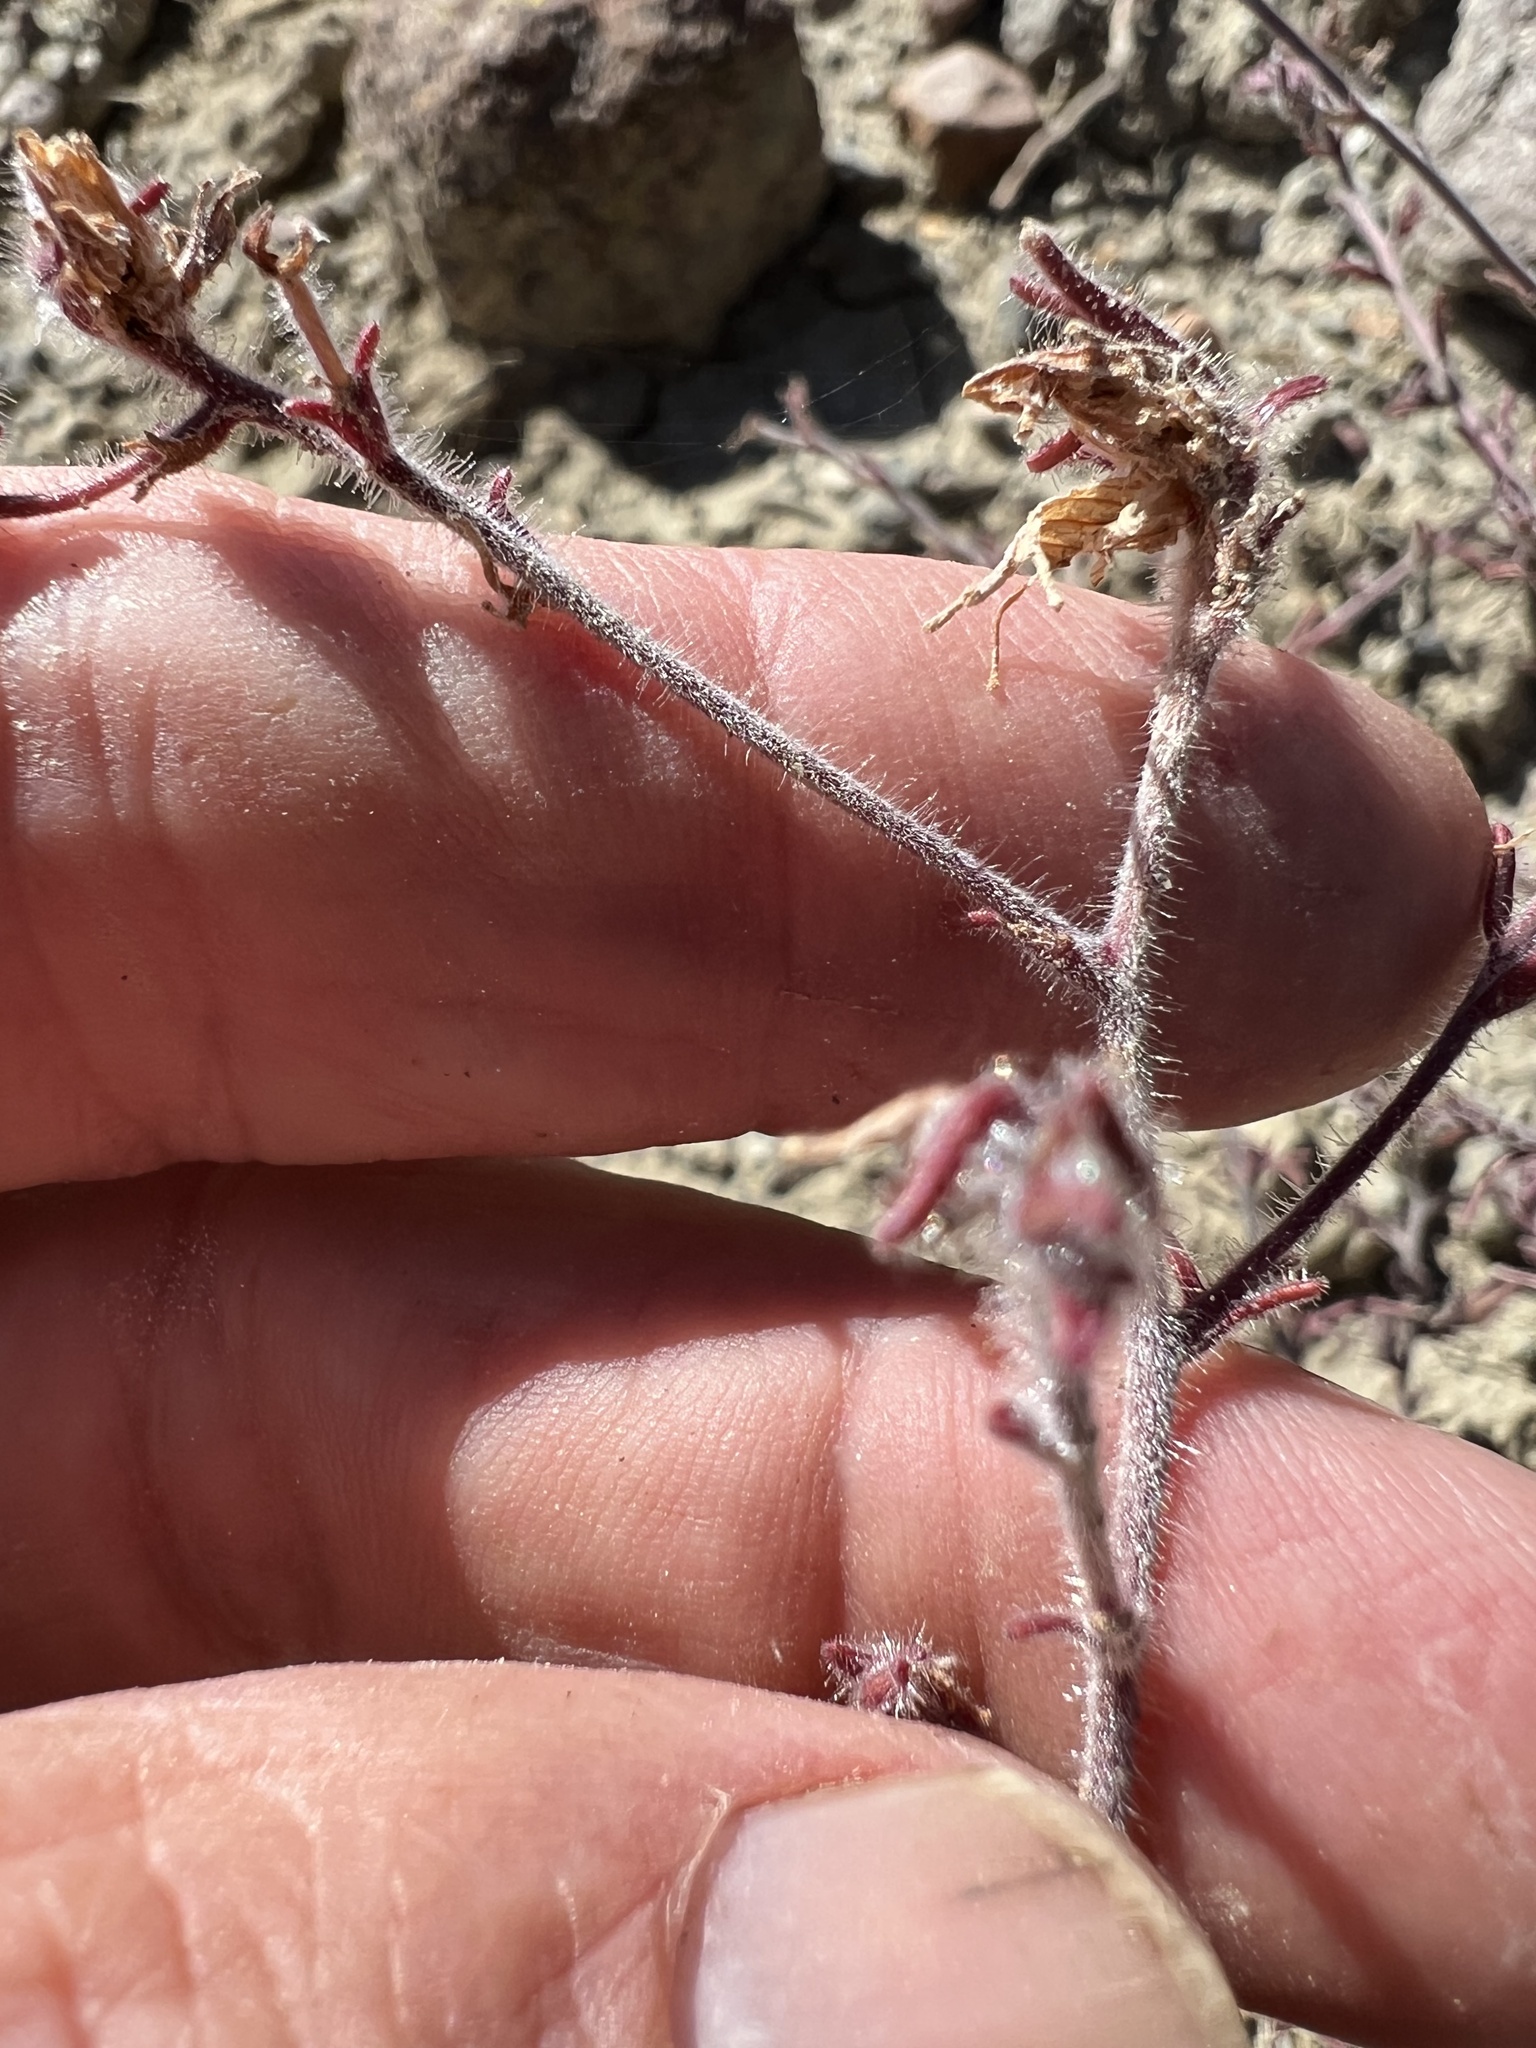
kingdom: Plantae
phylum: Tracheophyta
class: Magnoliopsida
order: Lamiales
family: Orobanchaceae
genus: Cordylanthus
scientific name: Cordylanthus kingii
